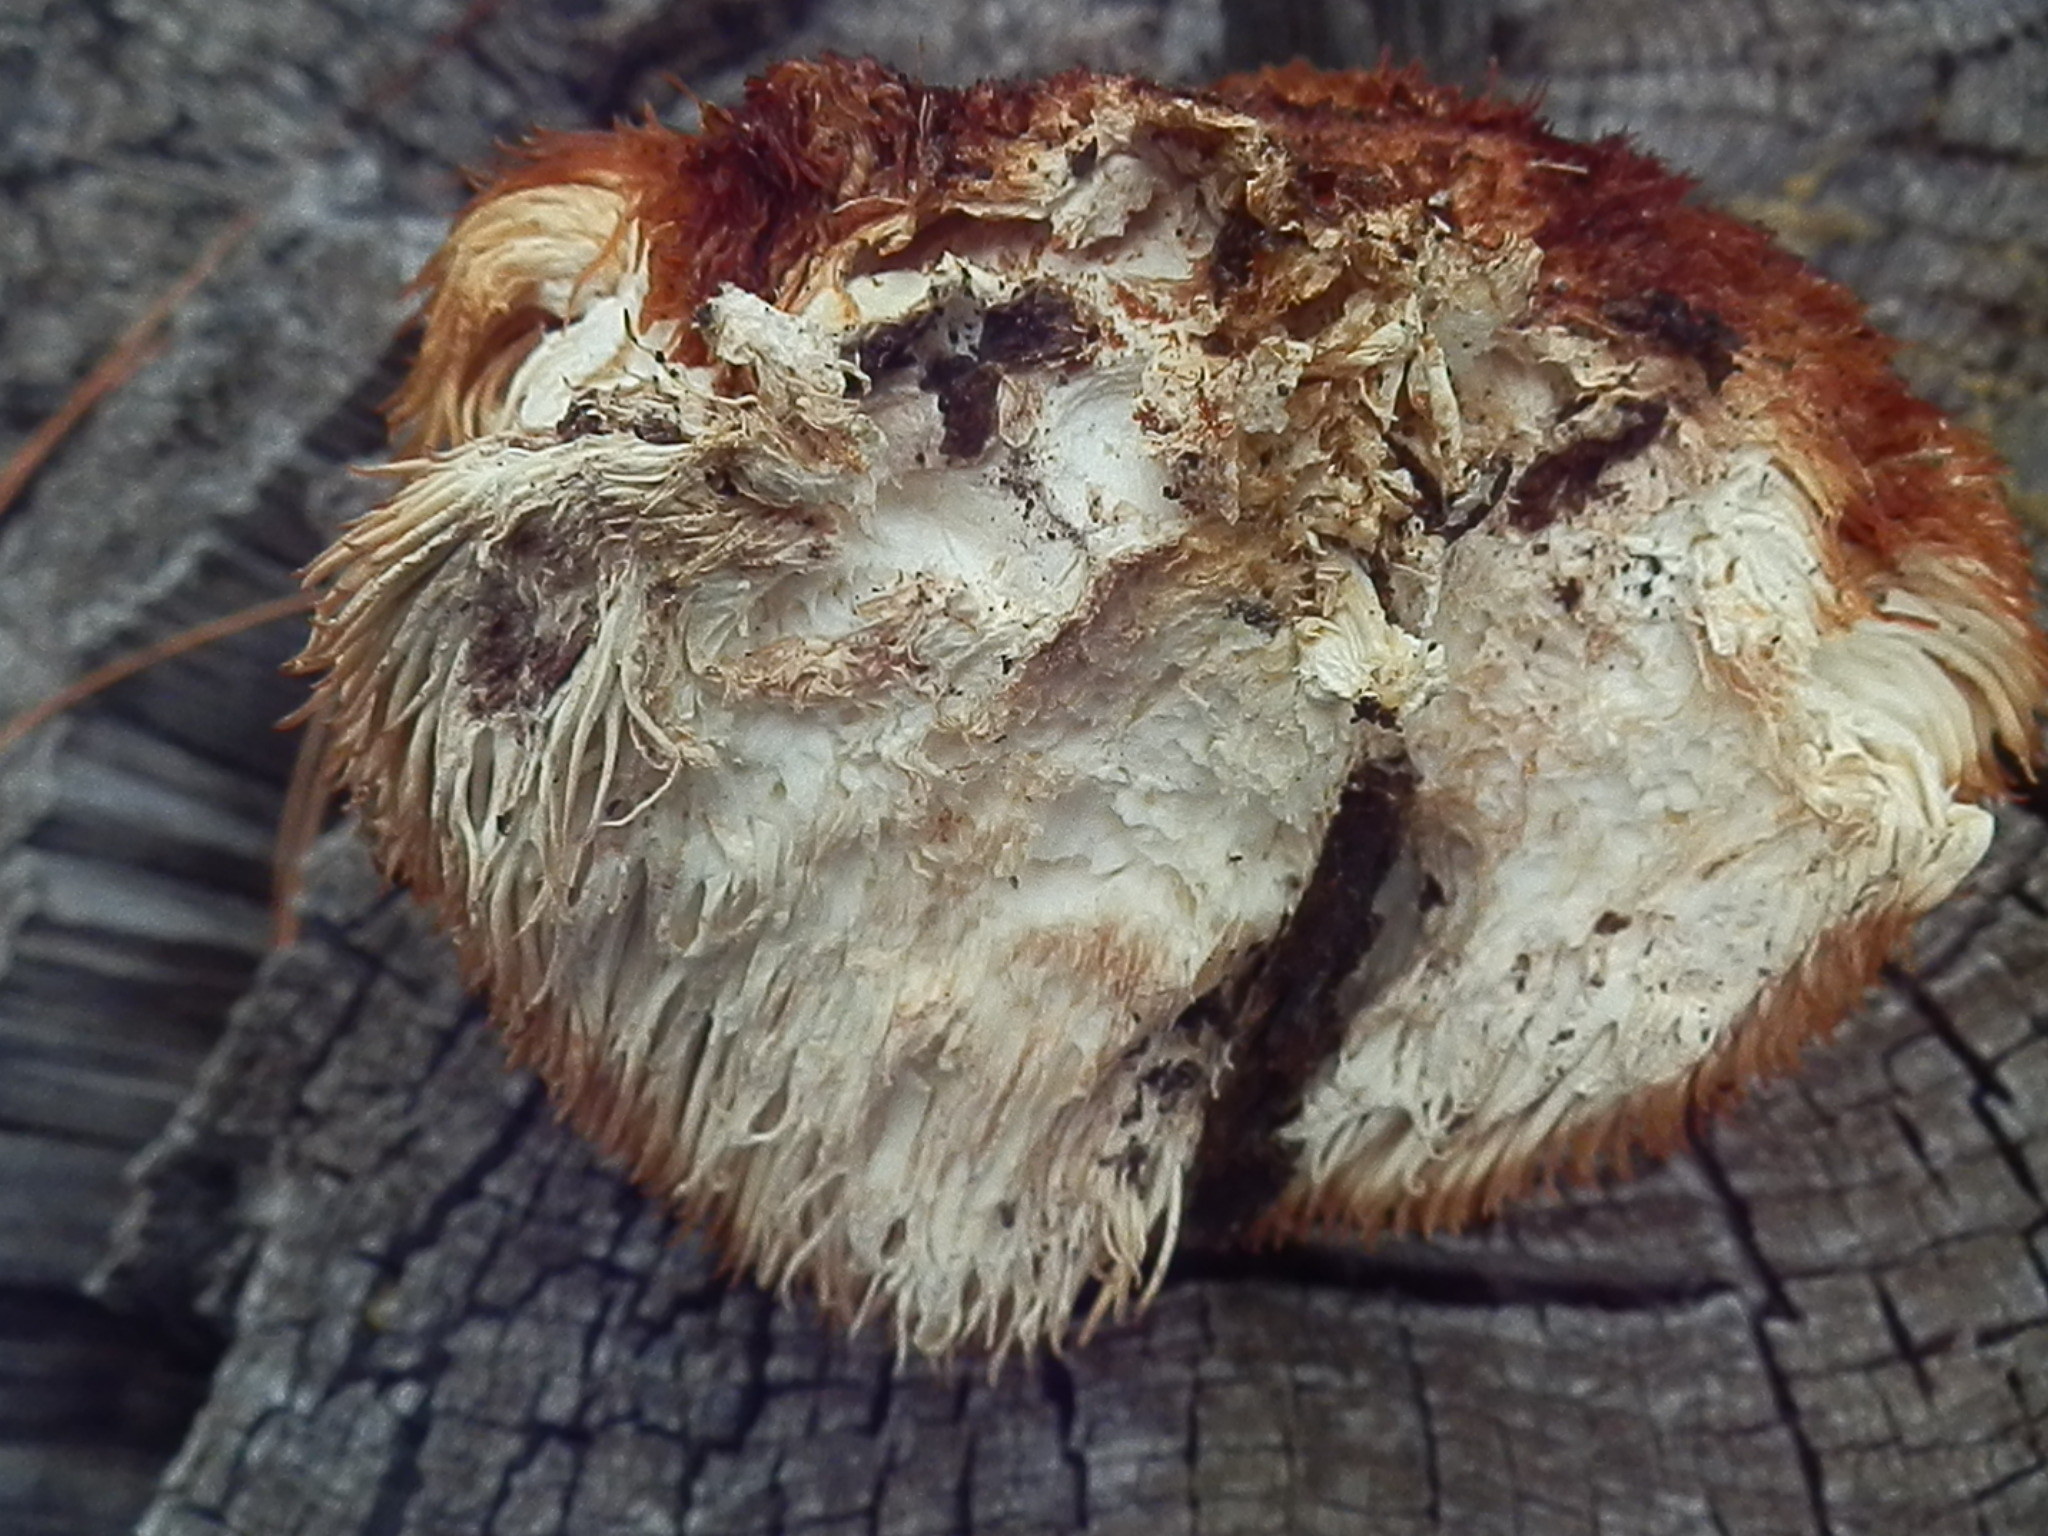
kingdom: Fungi
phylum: Basidiomycota
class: Agaricomycetes
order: Russulales
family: Hericiaceae
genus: Hericium
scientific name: Hericium erinaceus
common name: Bearded tooth
